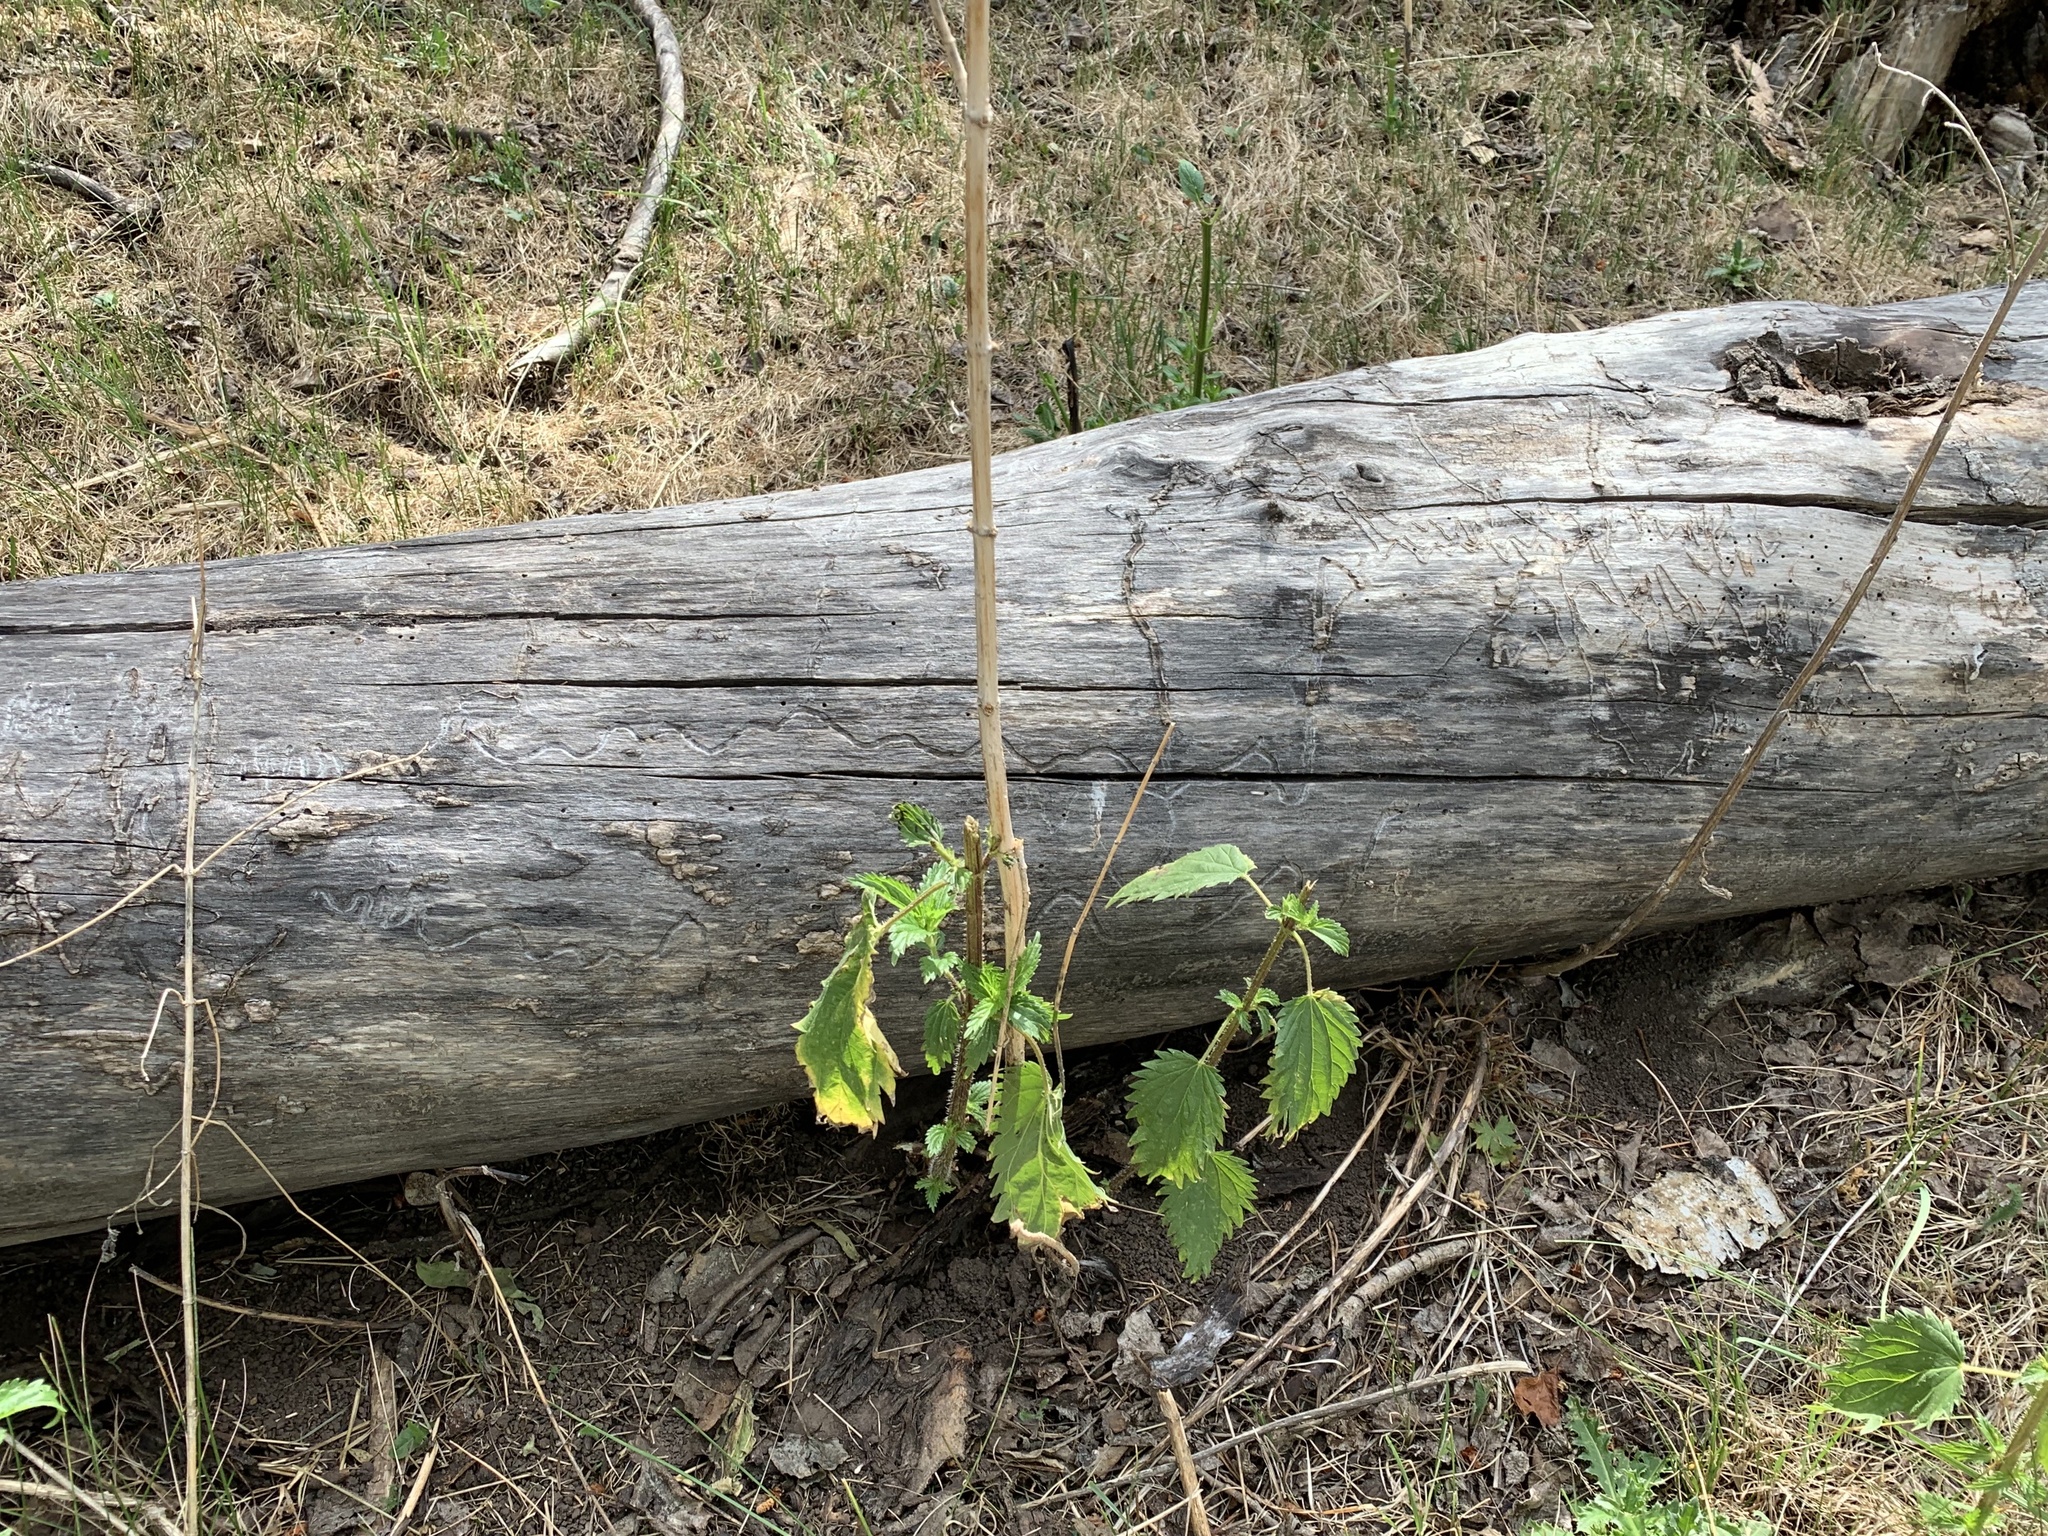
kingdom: Plantae
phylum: Tracheophyta
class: Magnoliopsida
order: Rosales
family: Urticaceae
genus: Urtica
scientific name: Urtica gracilis
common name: Slender stinging nettle
